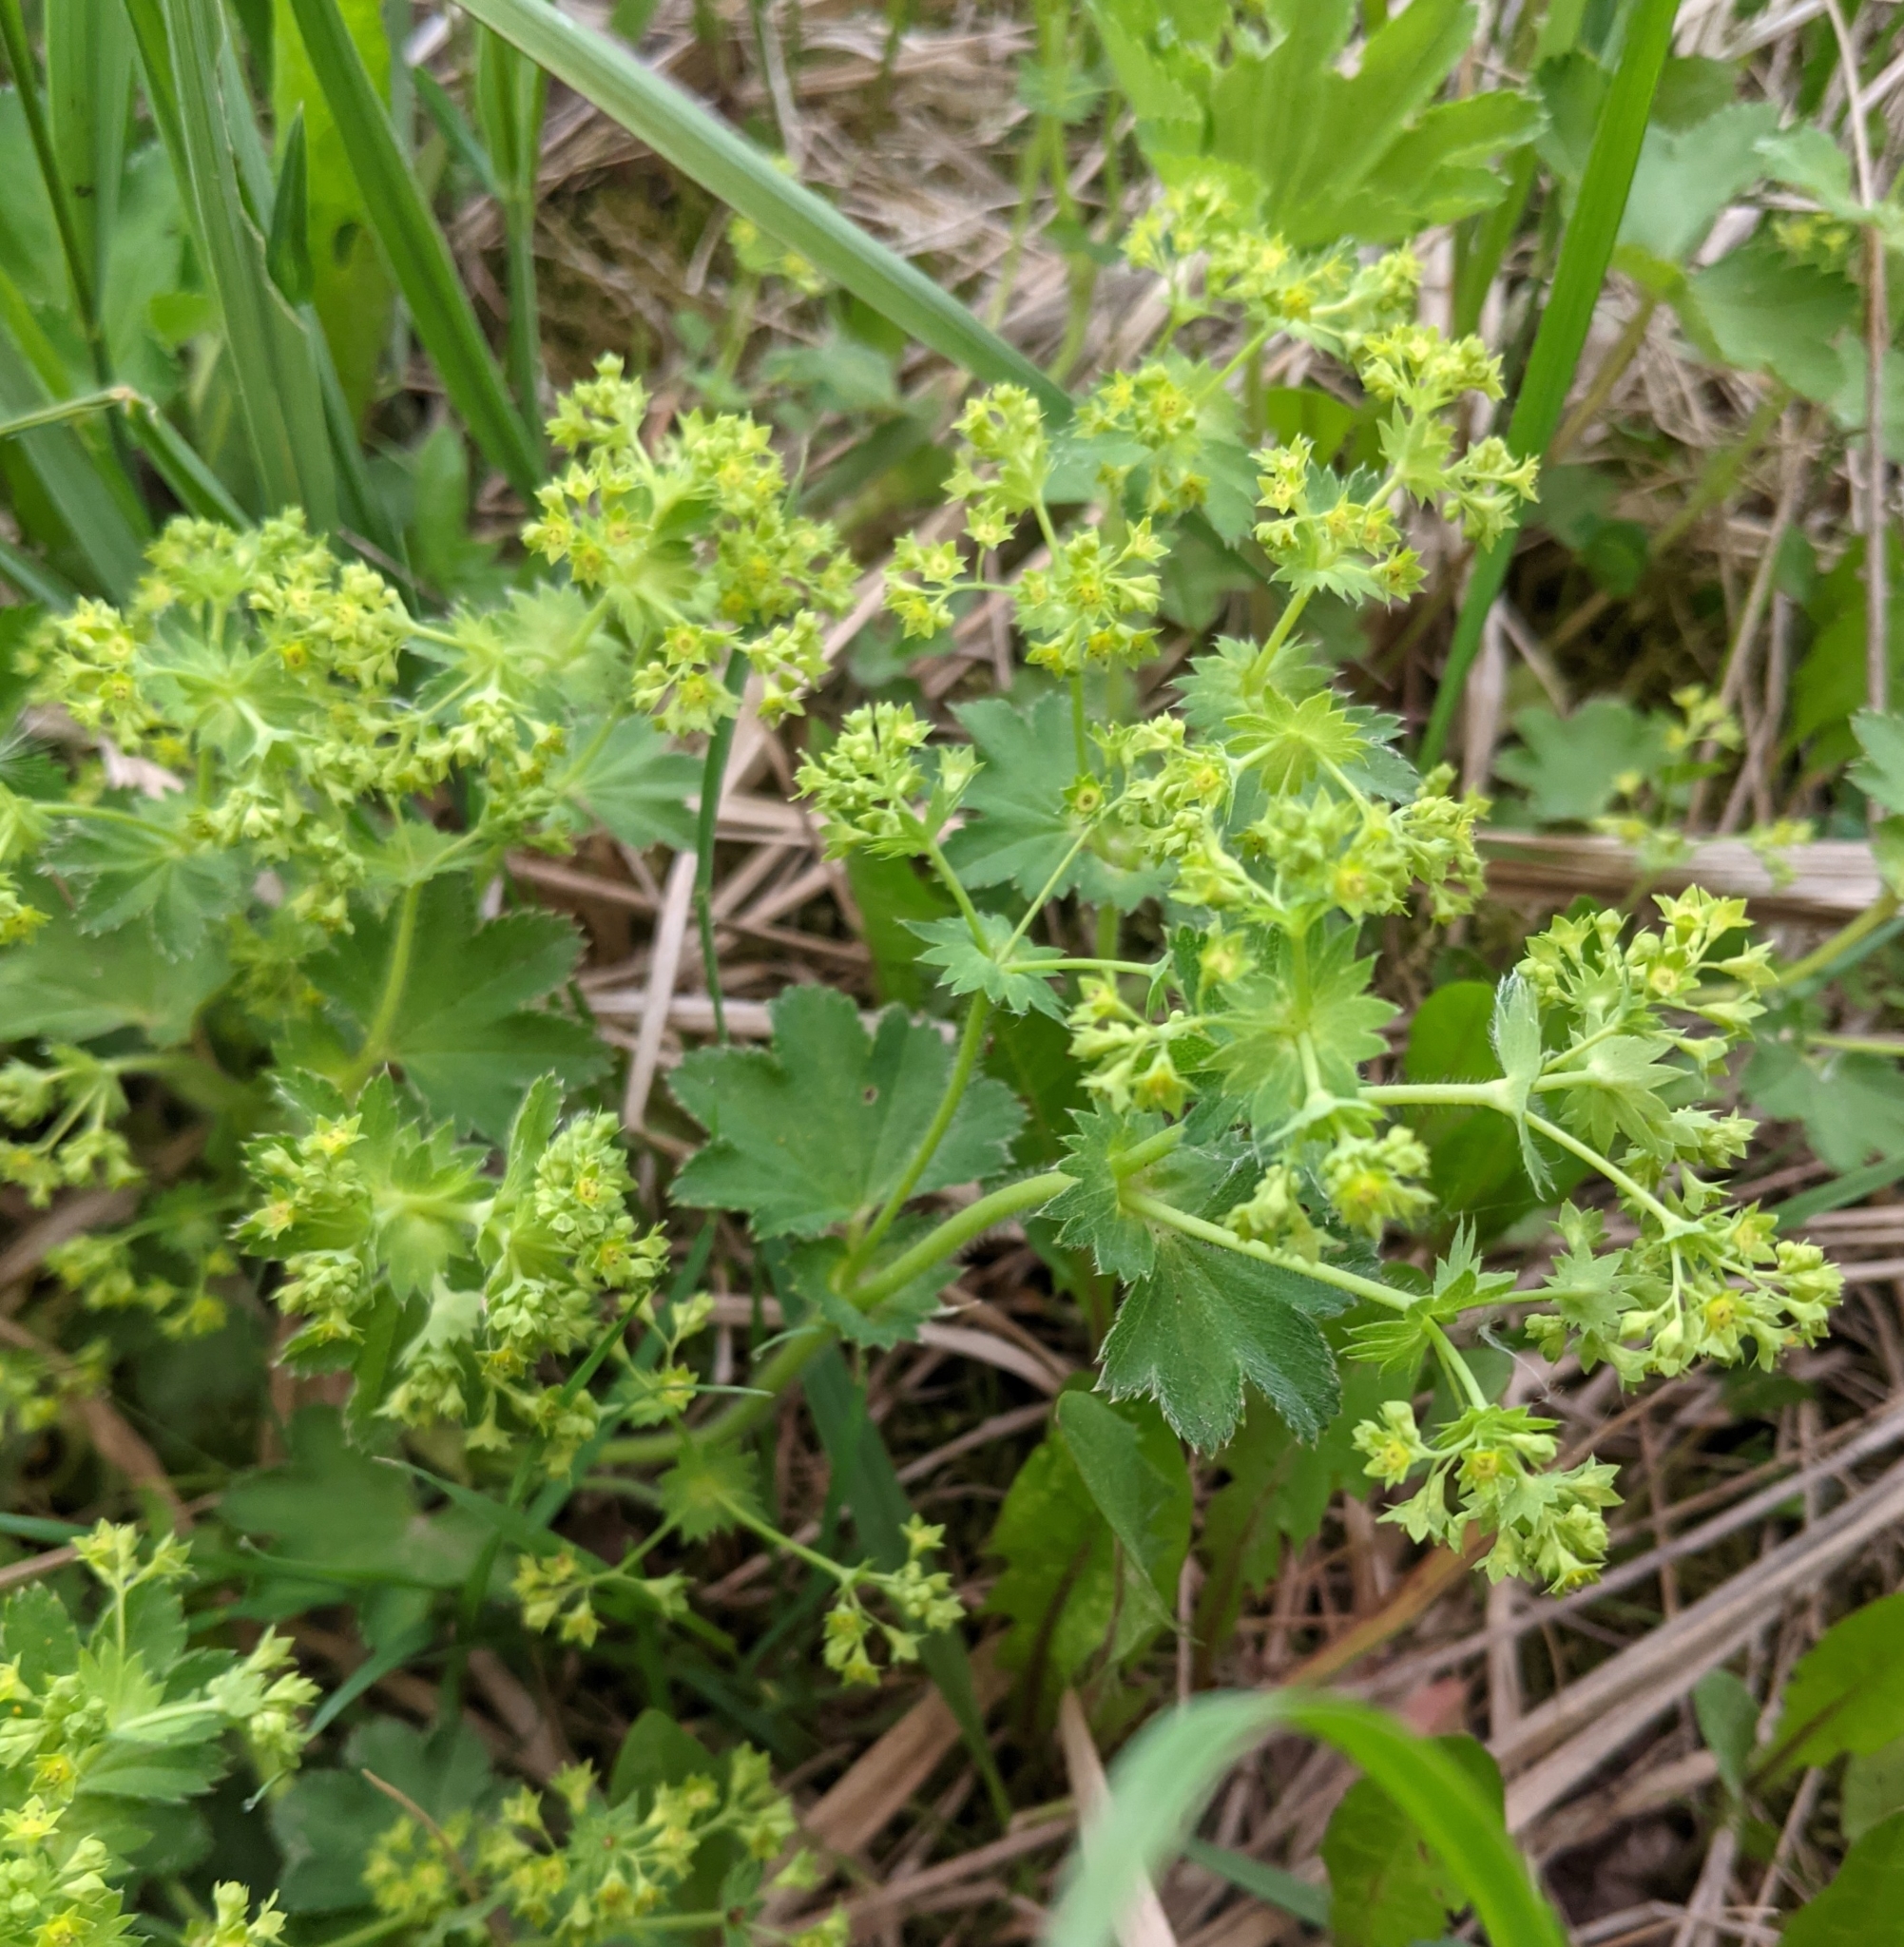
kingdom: Plantae
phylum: Tracheophyta
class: Magnoliopsida
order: Rosales
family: Rosaceae
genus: Alchemilla
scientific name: Alchemilla
